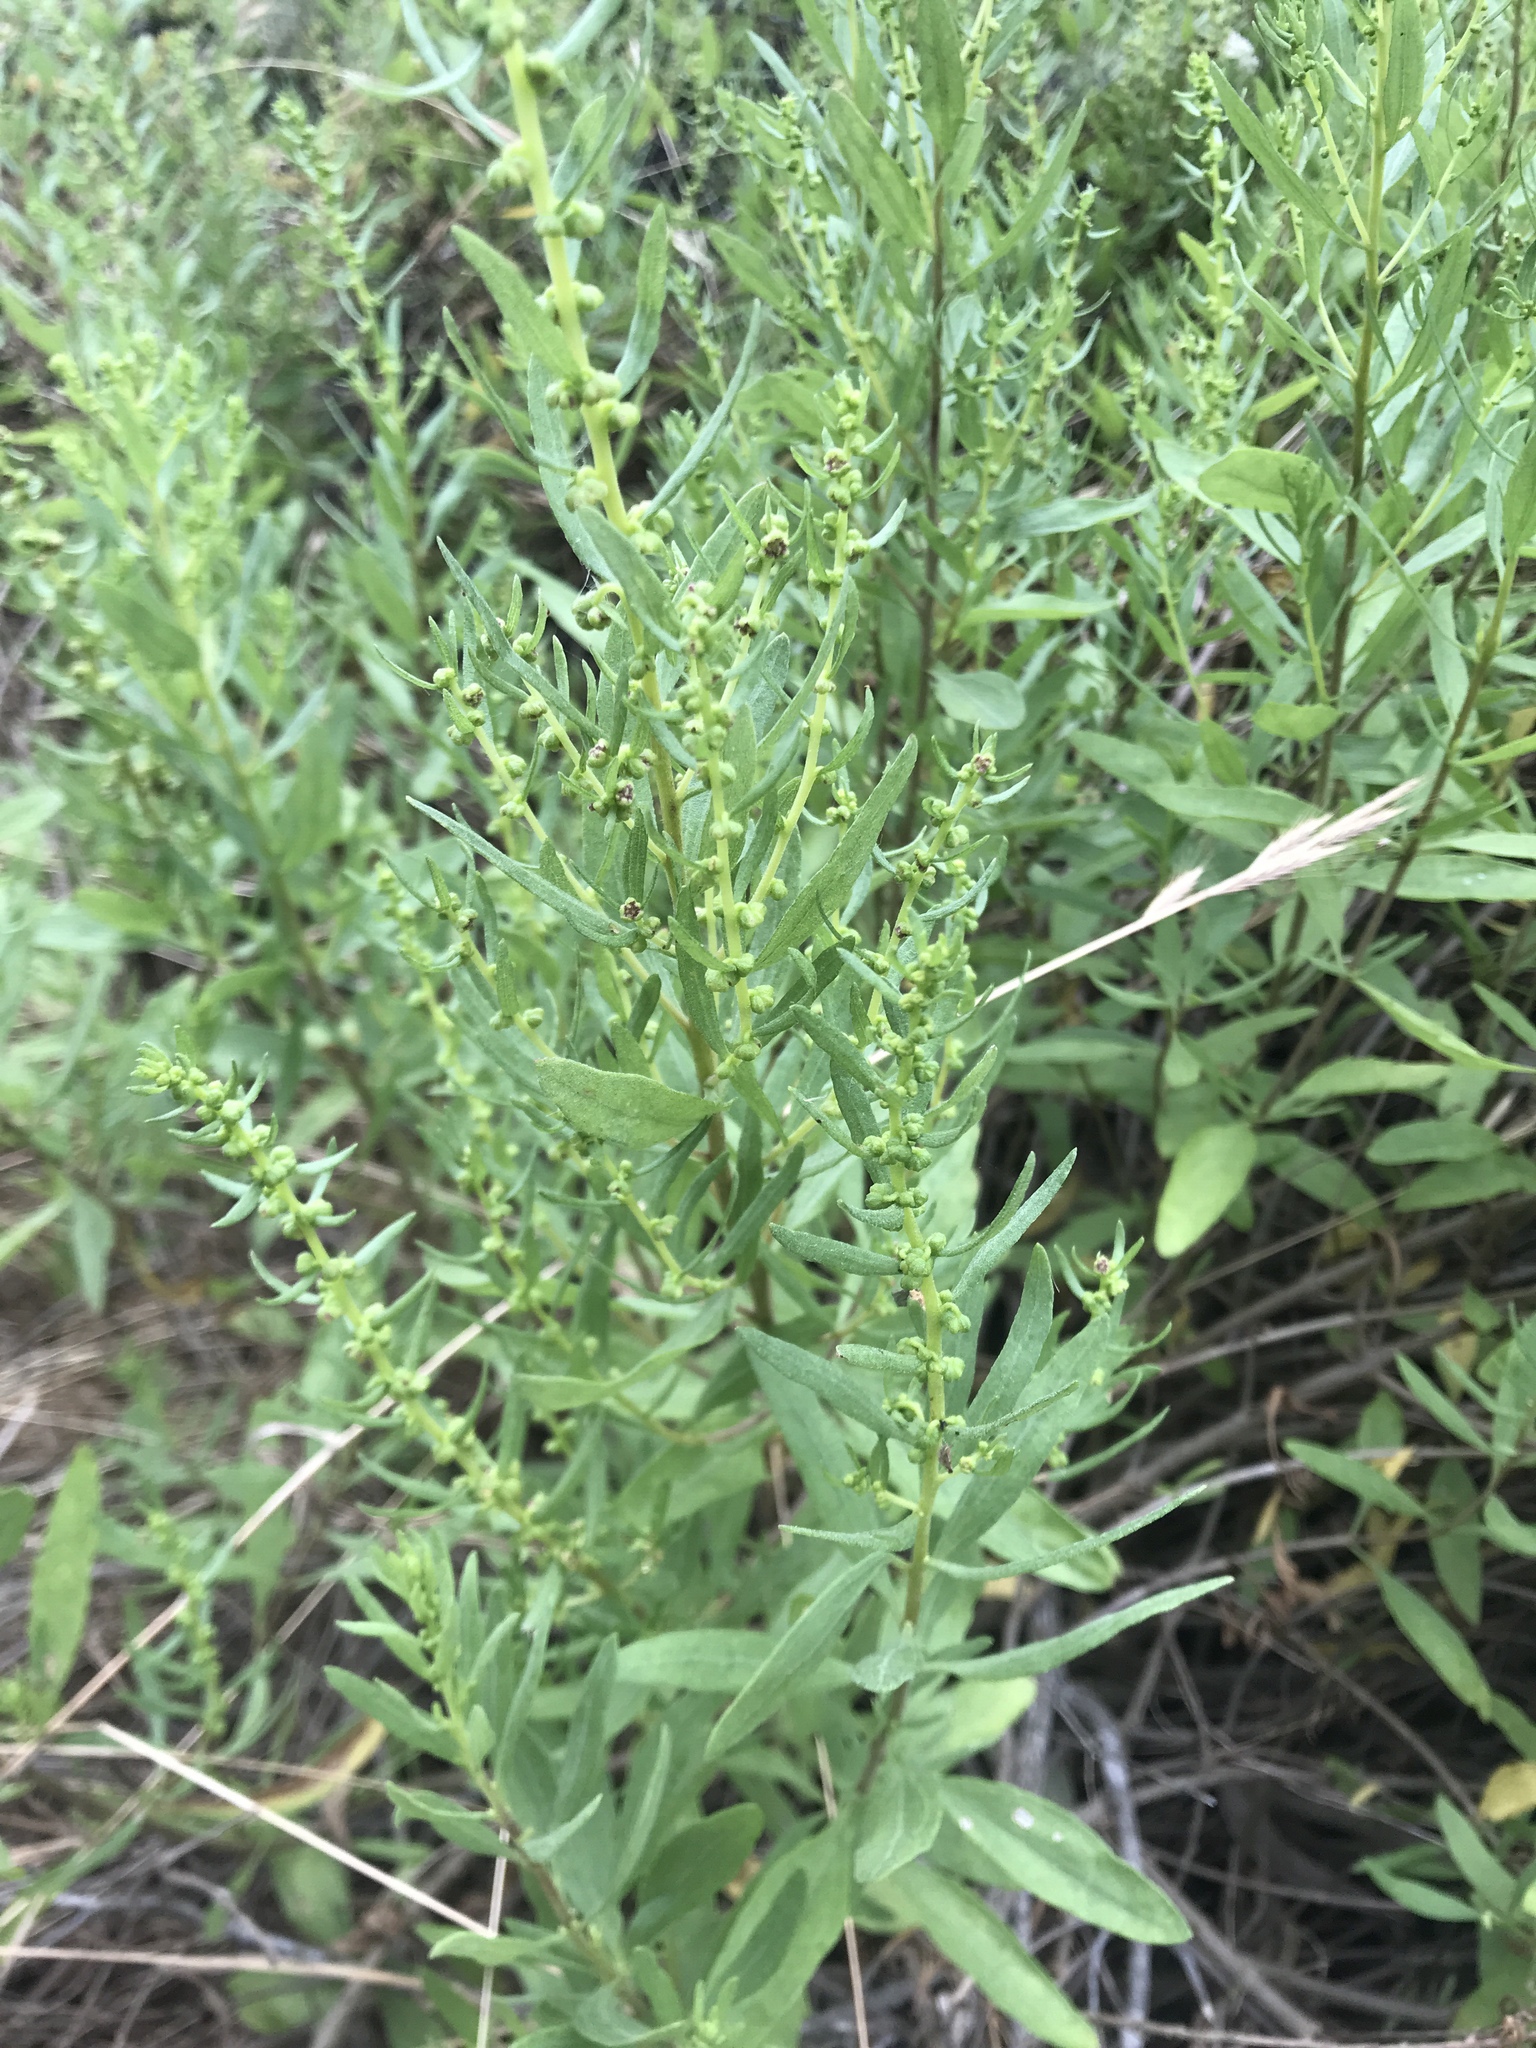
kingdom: Plantae
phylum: Tracheophyta
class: Magnoliopsida
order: Asterales
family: Asteraceae
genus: Iva
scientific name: Iva hayesiana
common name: San diego marsh-elder
